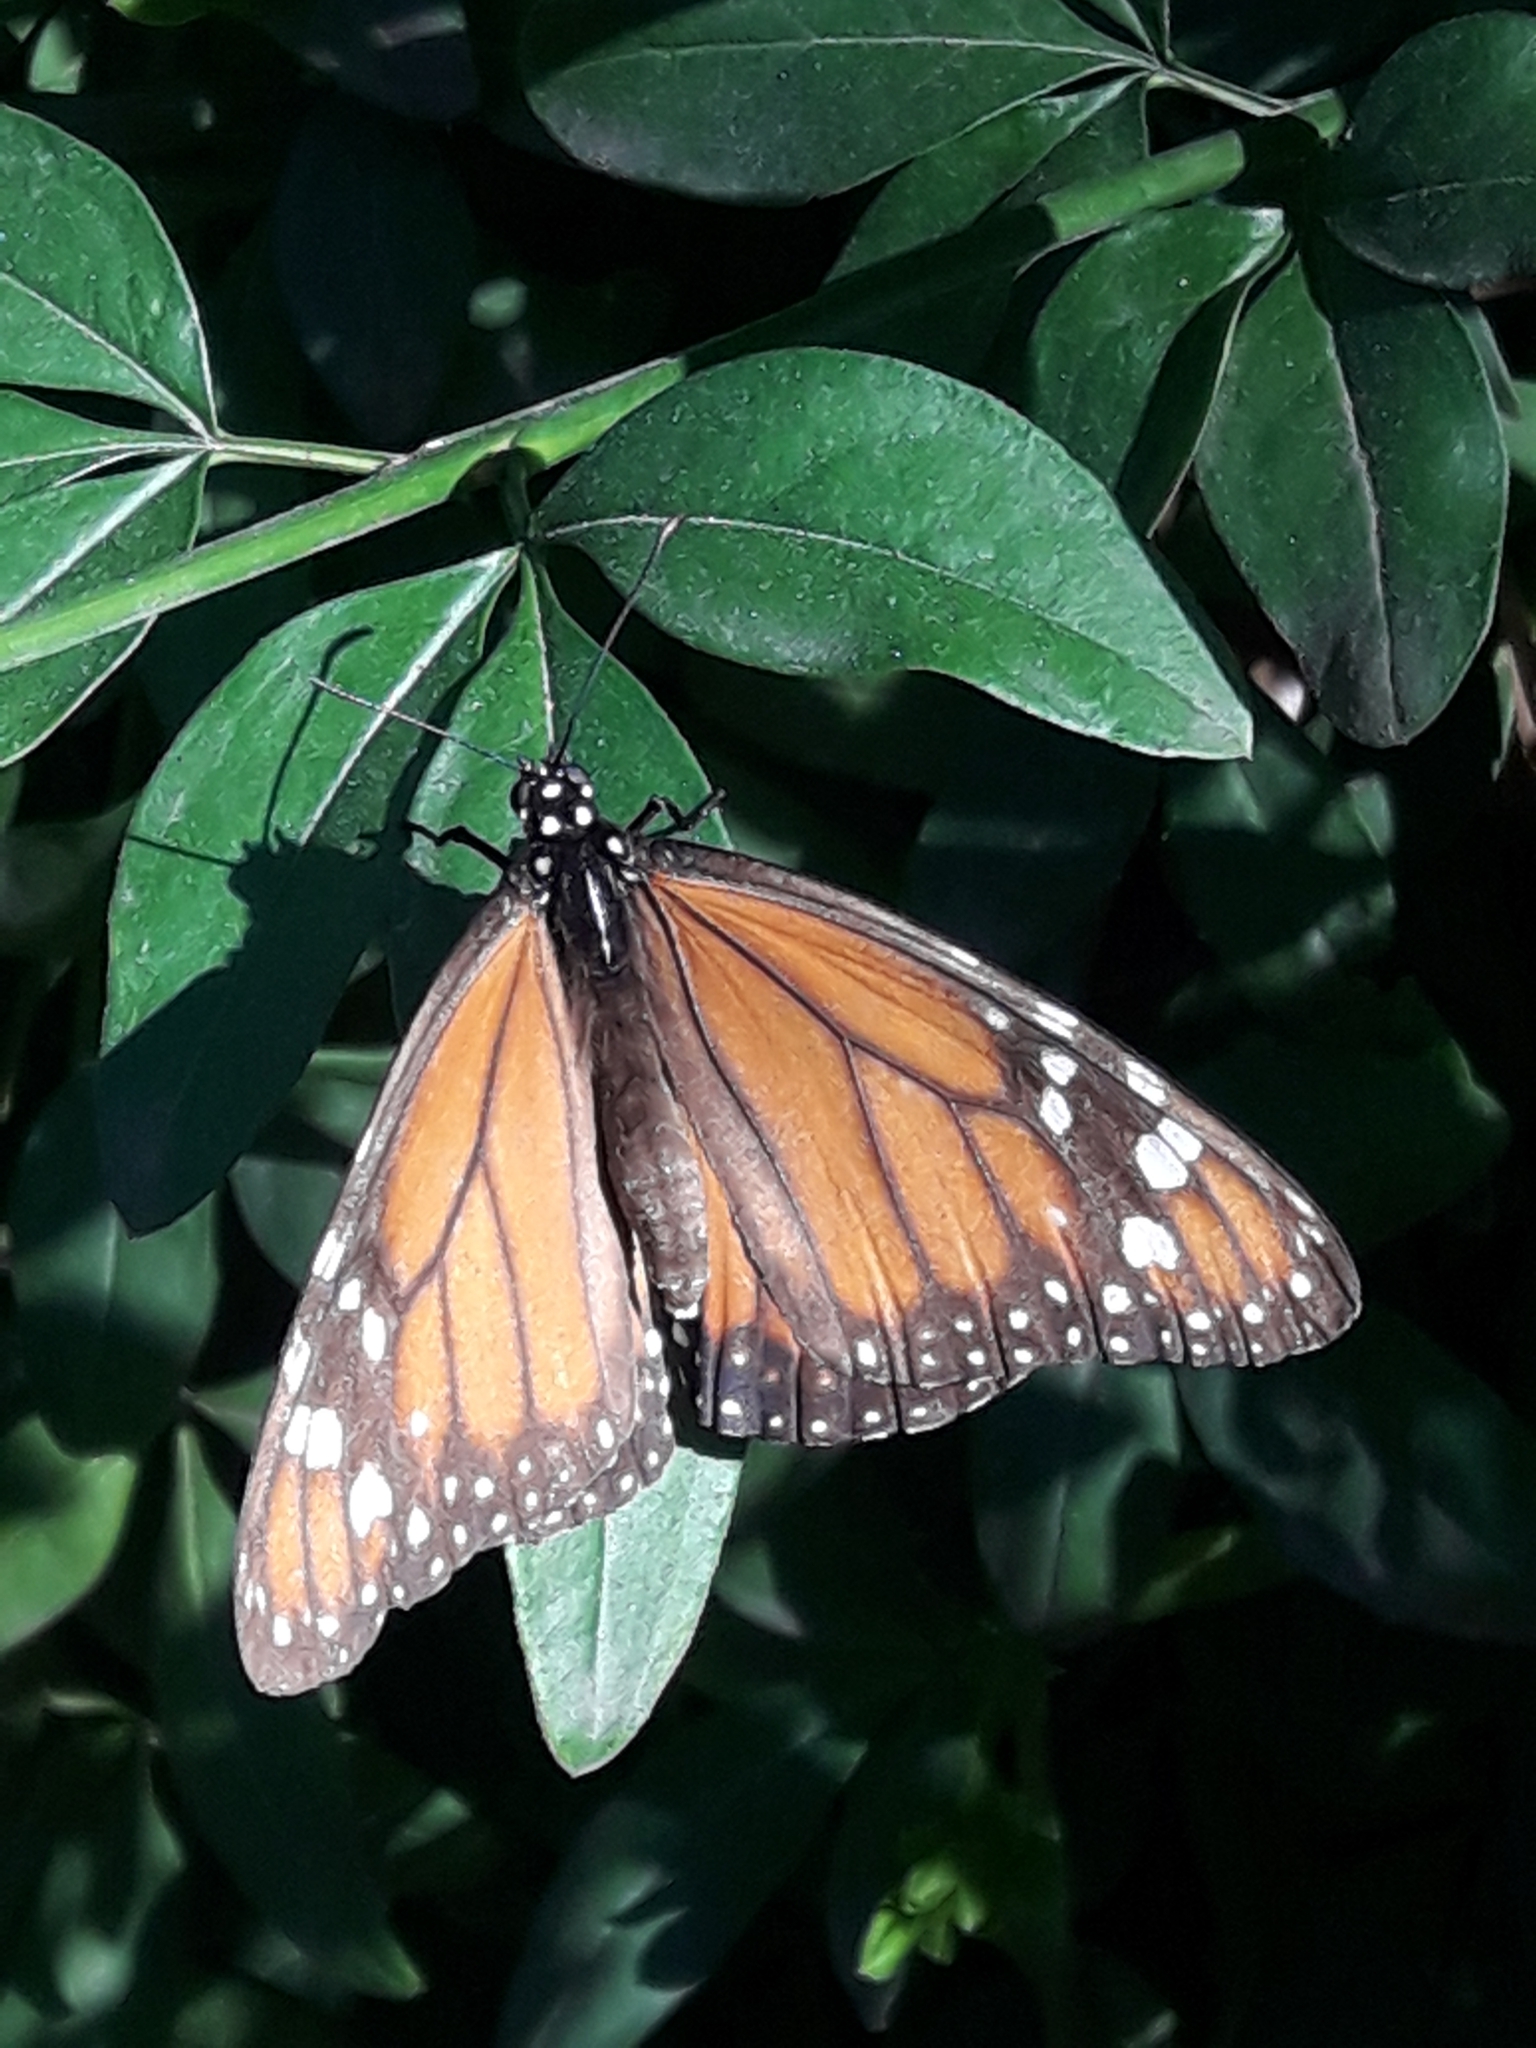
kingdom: Animalia
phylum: Arthropoda
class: Insecta
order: Lepidoptera
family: Nymphalidae
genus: Danaus
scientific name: Danaus erippus
